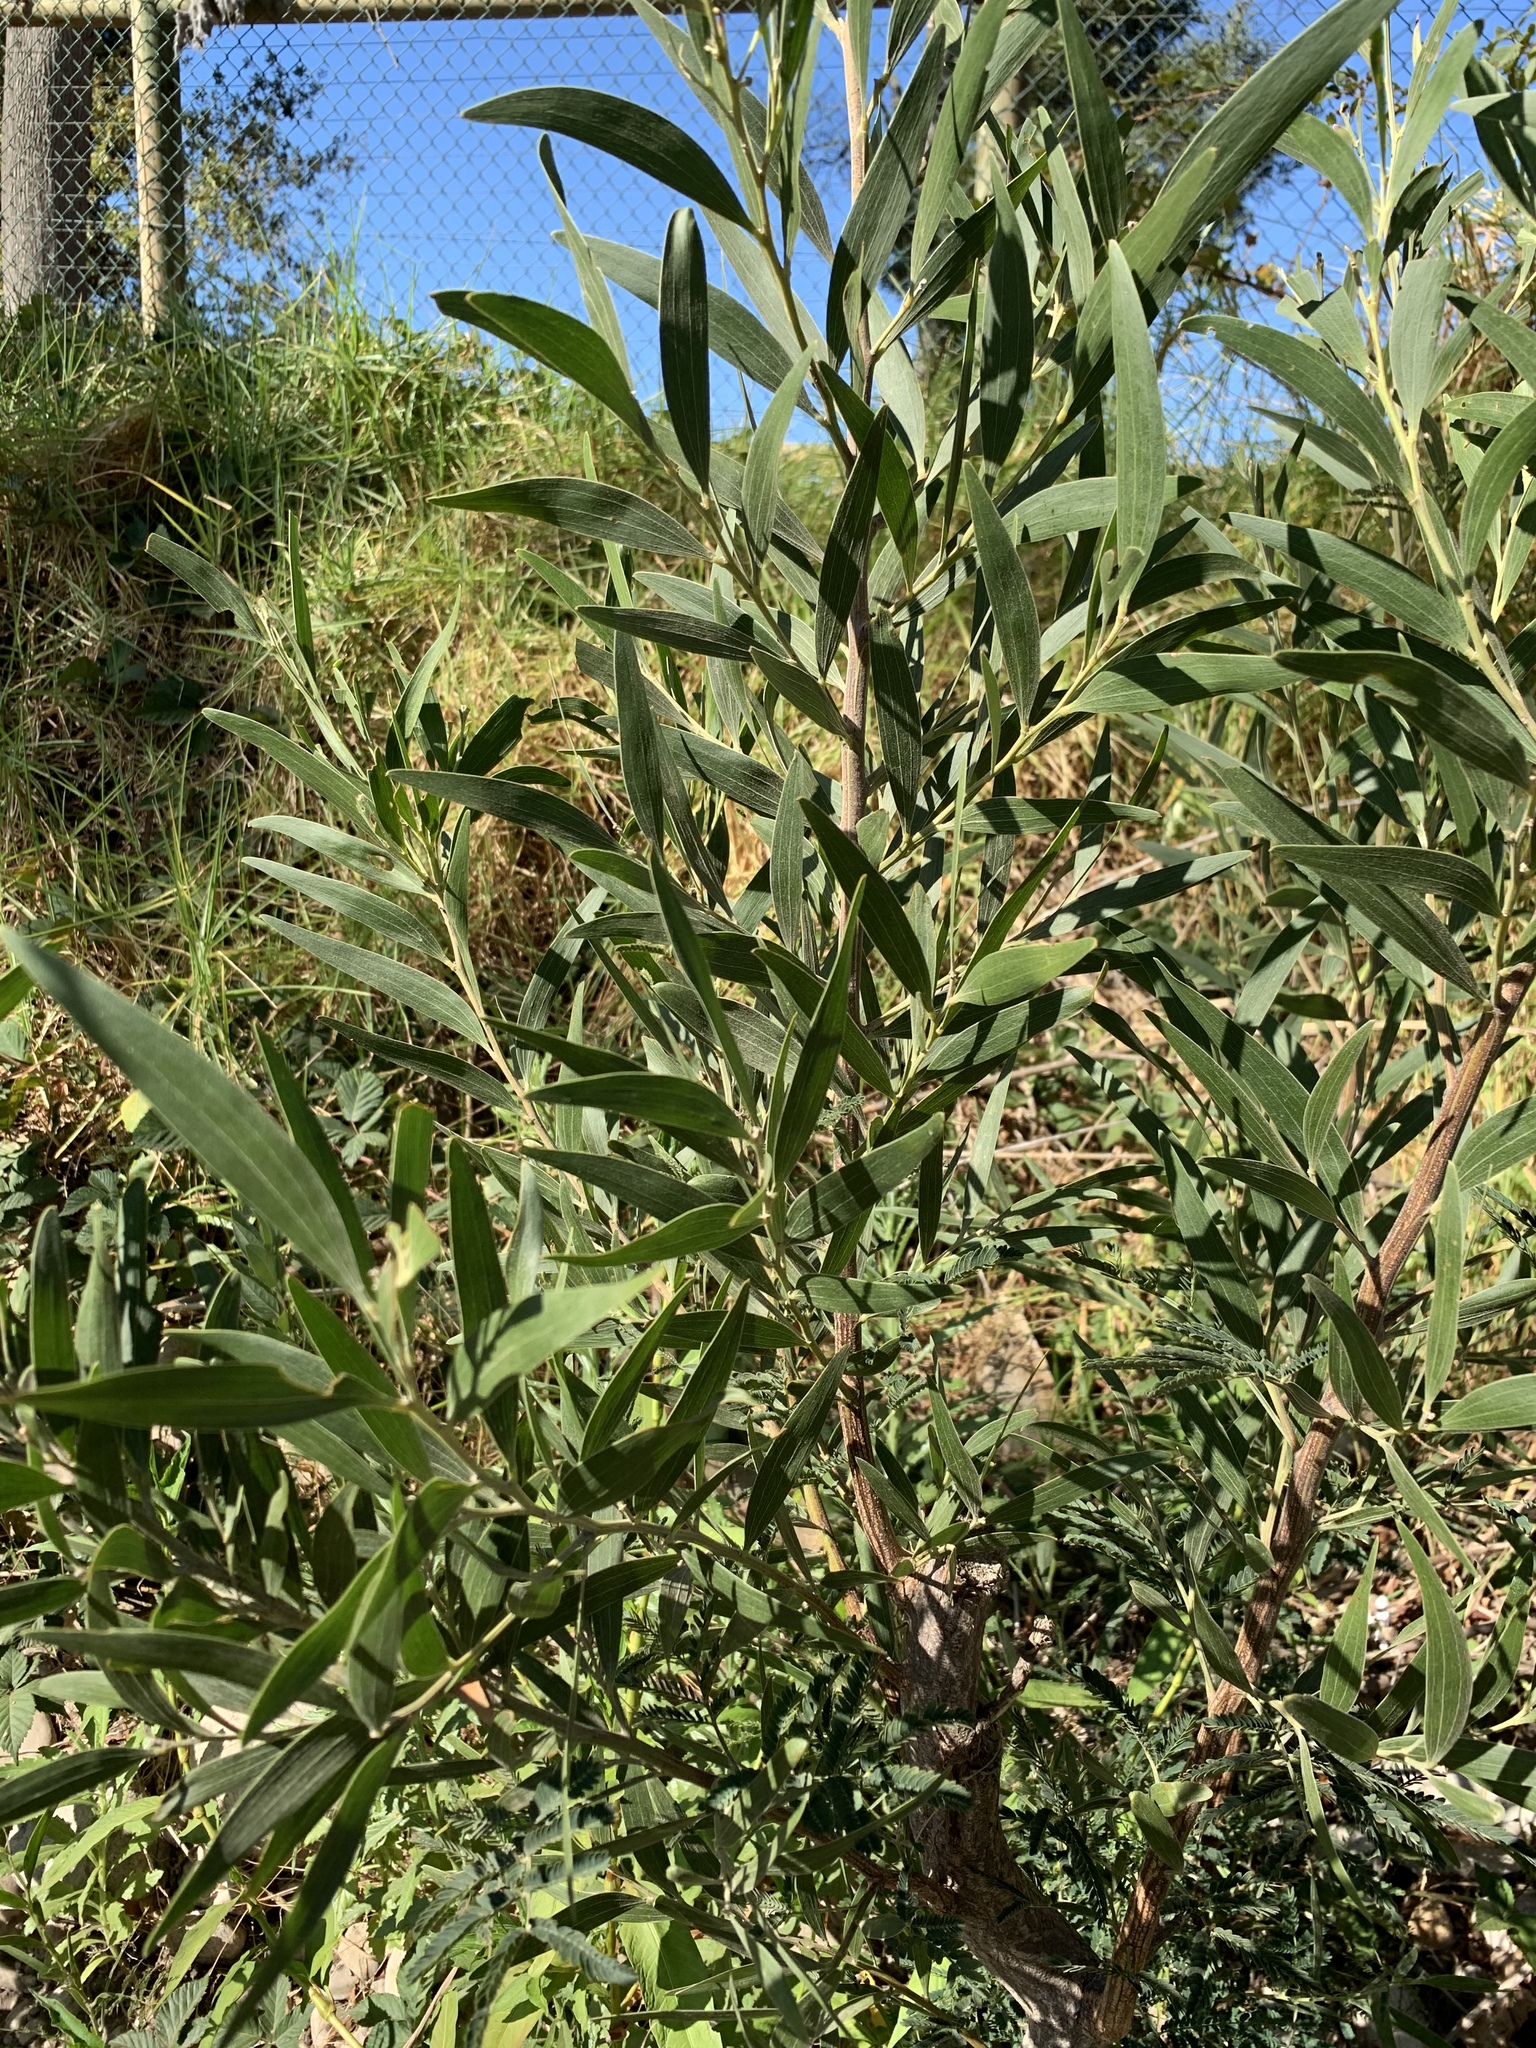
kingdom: Plantae
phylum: Tracheophyta
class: Magnoliopsida
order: Fabales
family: Fabaceae
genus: Acacia
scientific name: Acacia melanoxylon
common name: Blackwood
